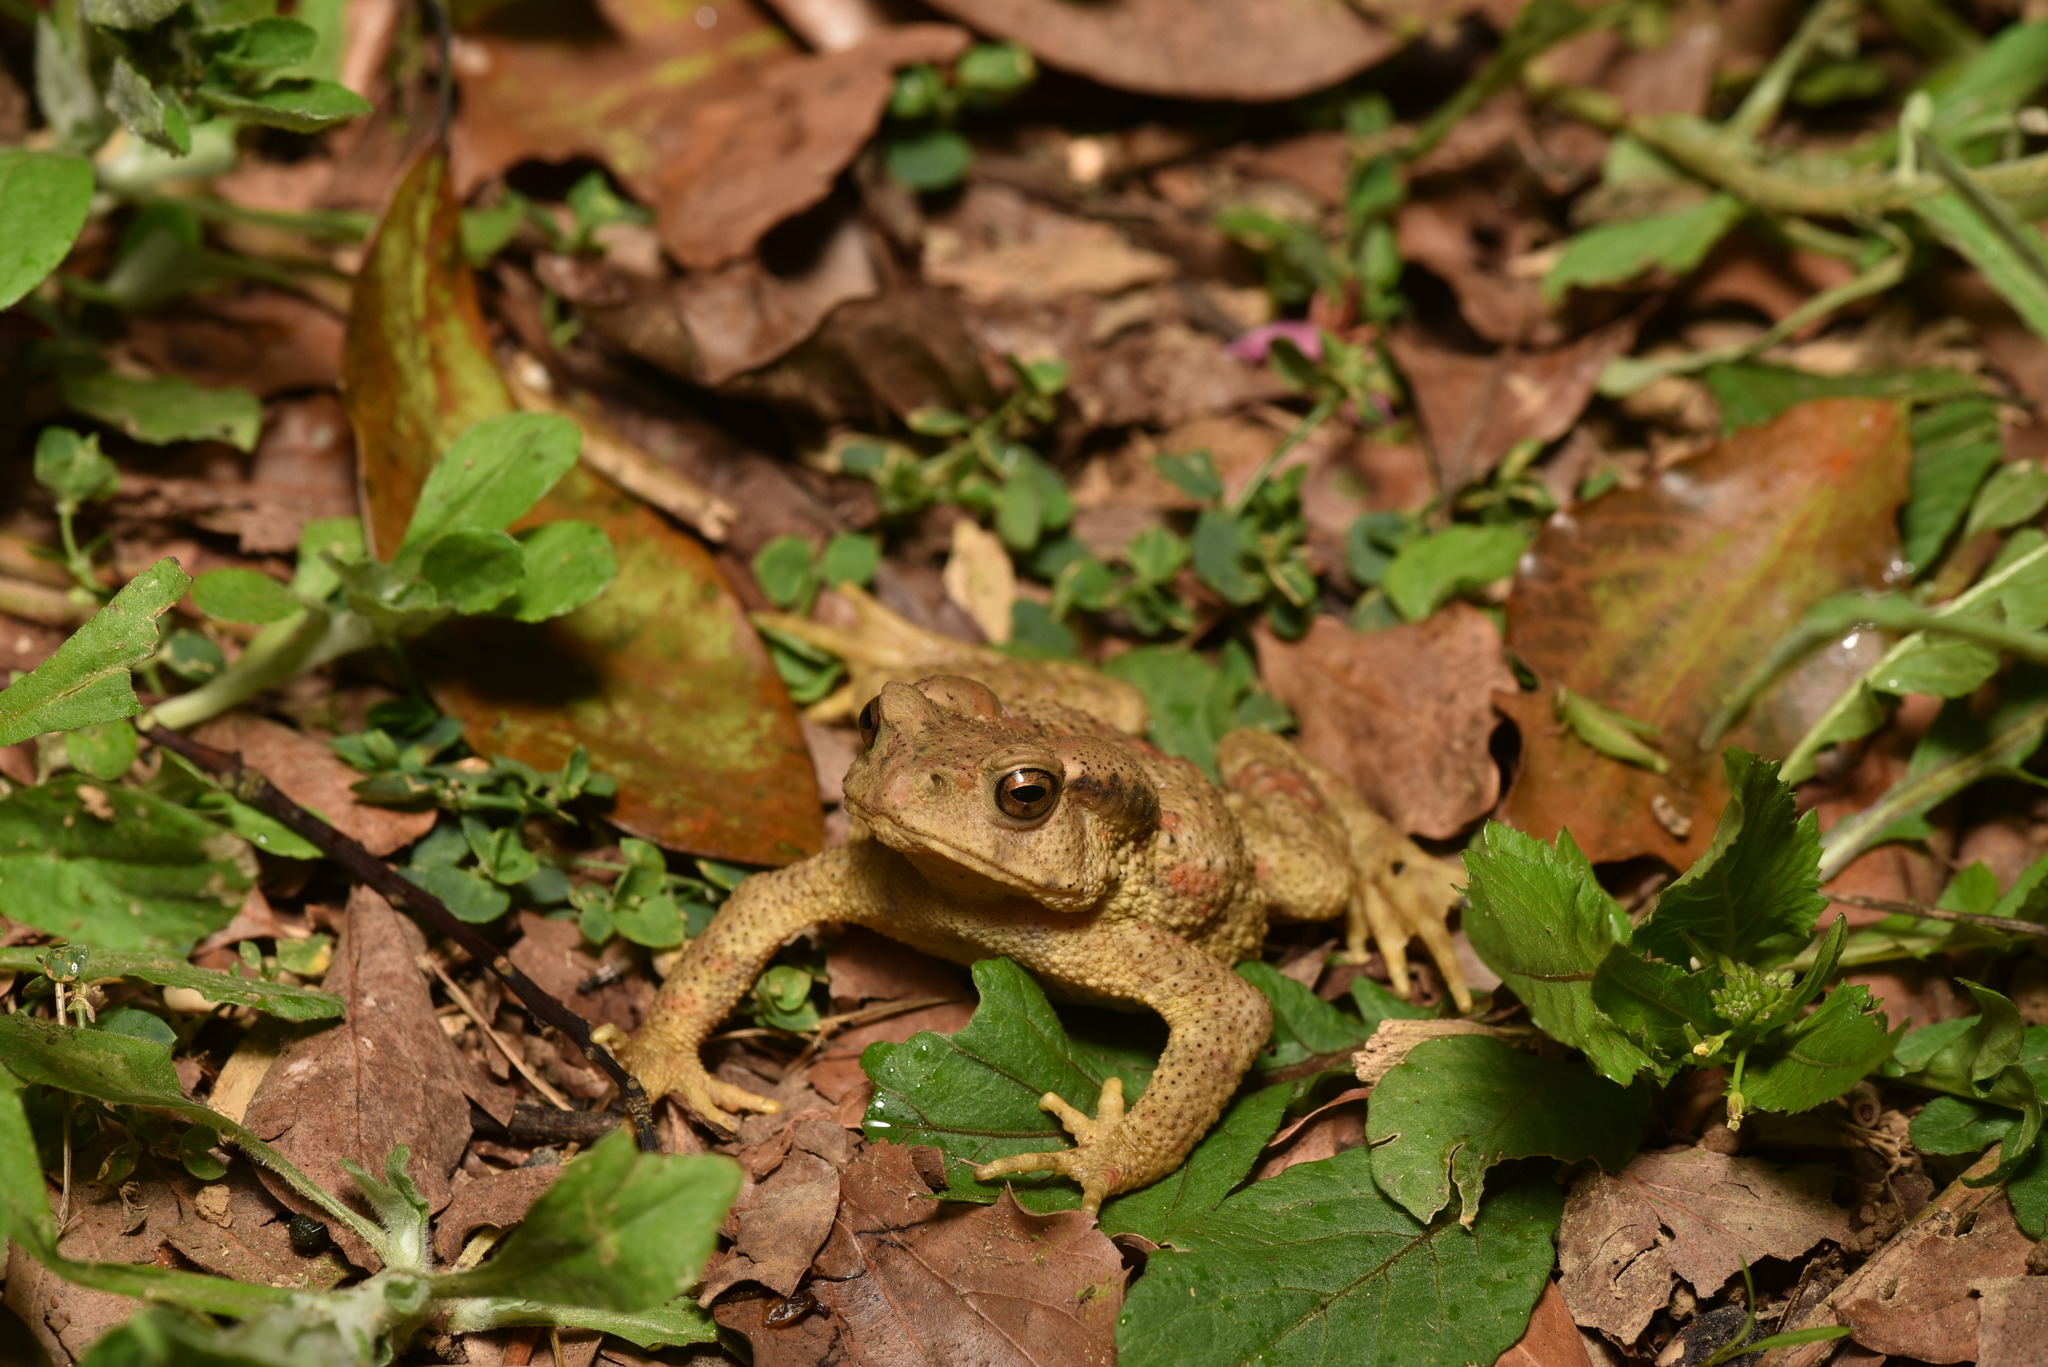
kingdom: Animalia
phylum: Chordata
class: Amphibia
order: Anura
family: Bufonidae
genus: Bufo
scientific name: Bufo bankorensis
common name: Bankor toad
